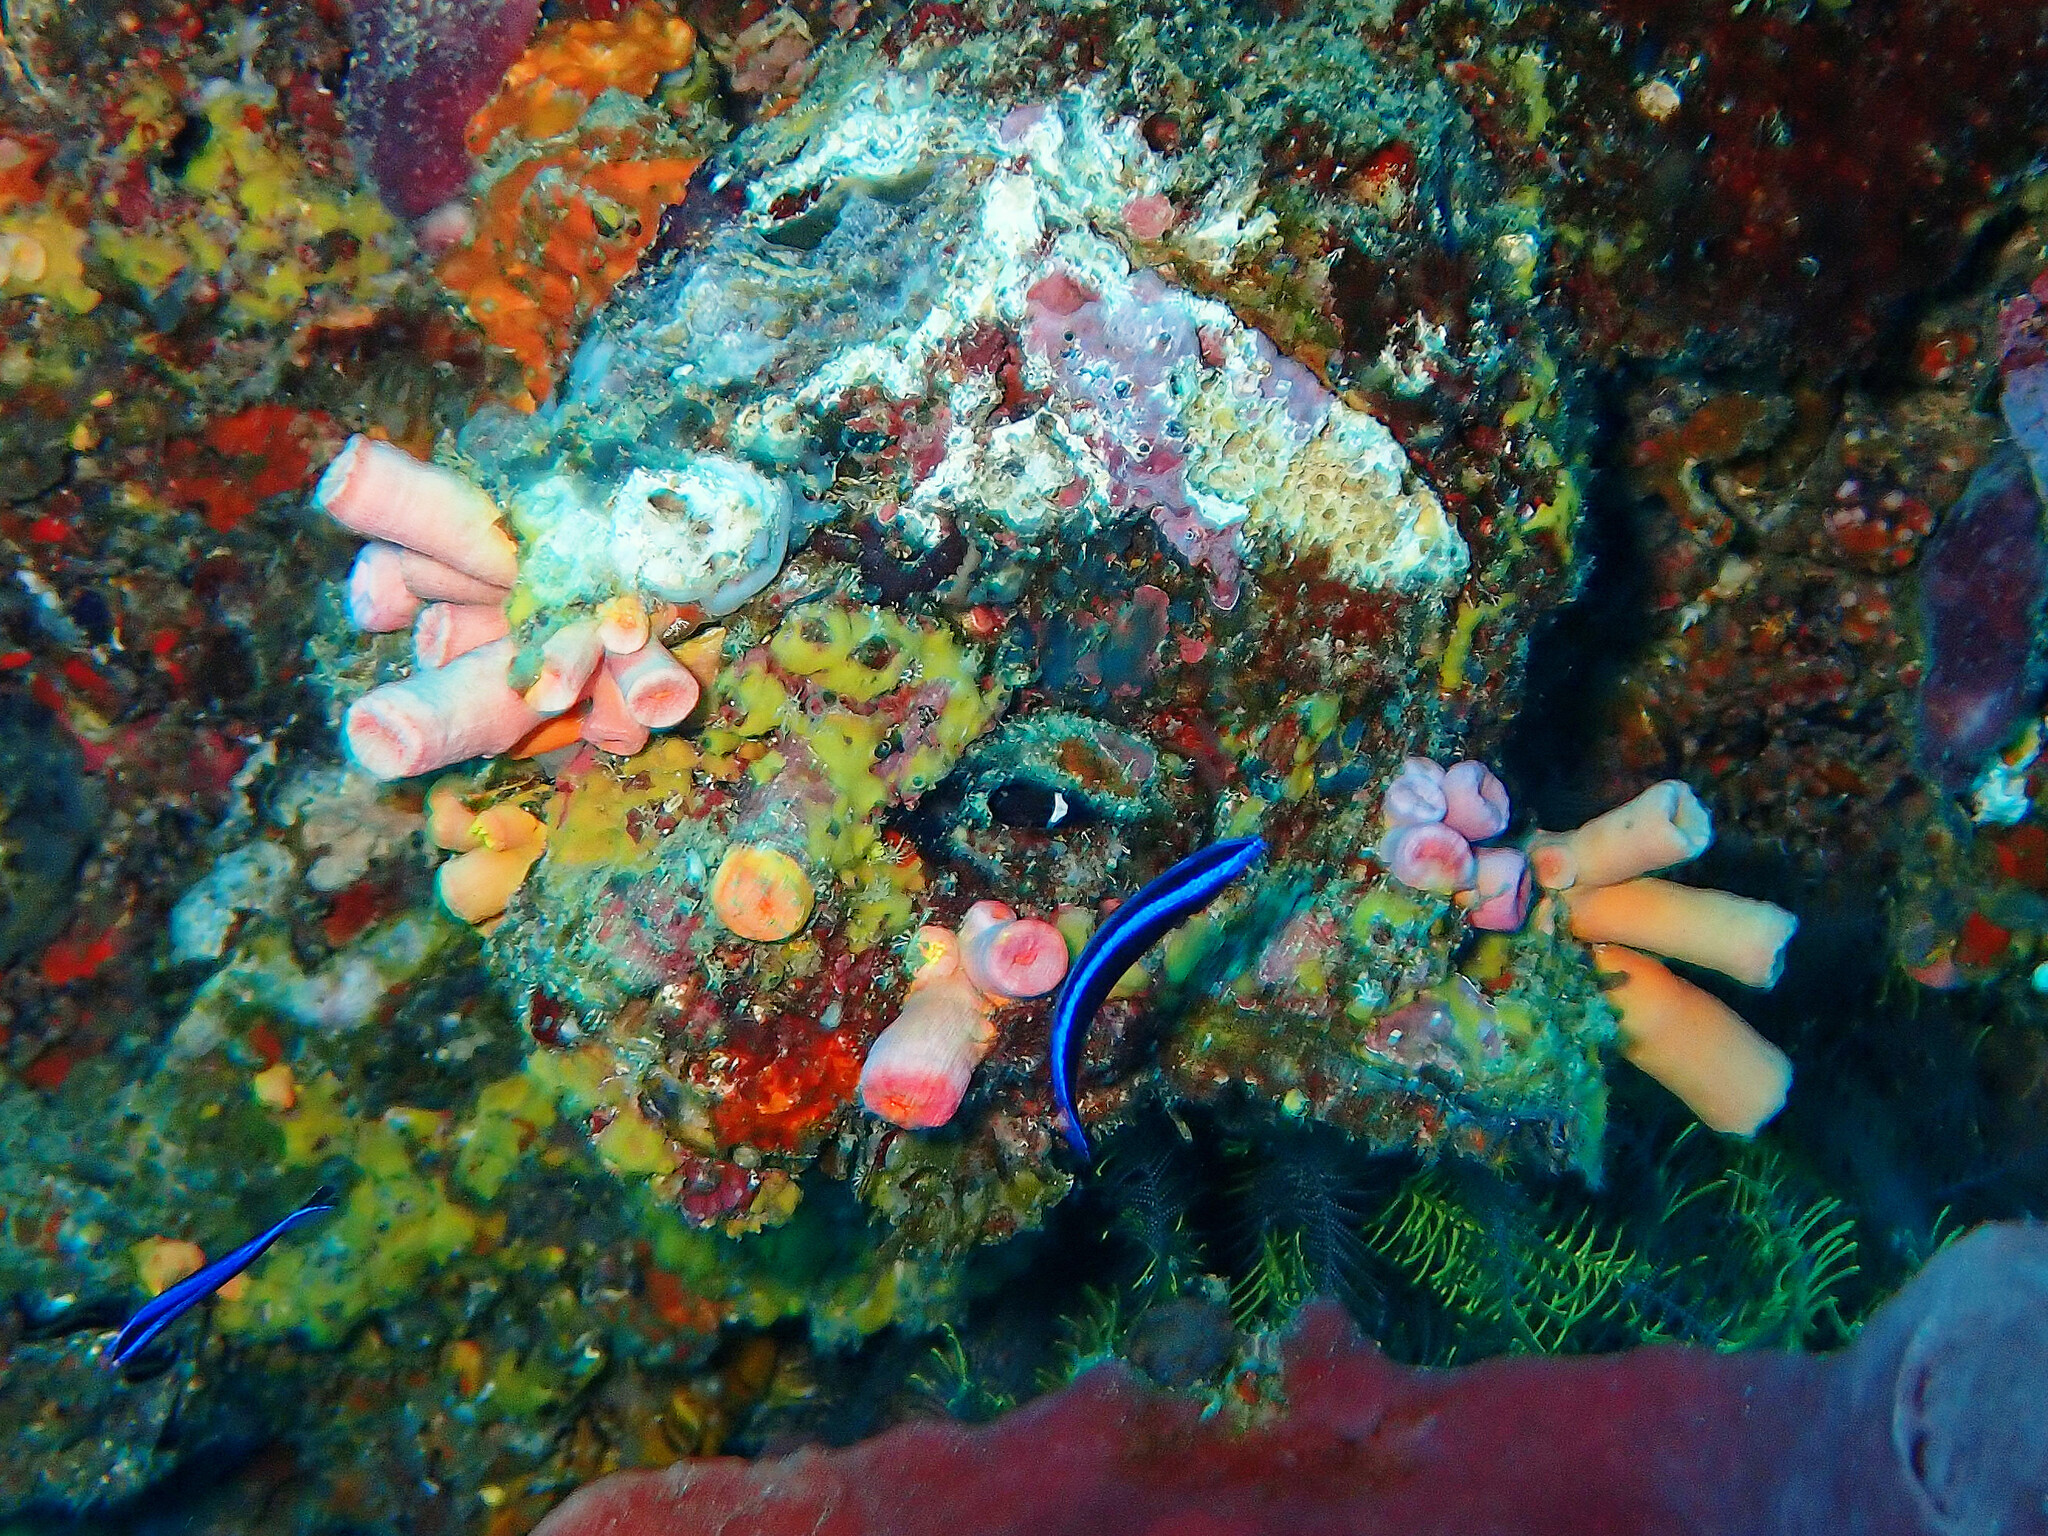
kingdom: Animalia
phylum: Cnidaria
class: Anthozoa
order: Scleractinia
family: Dendrophylliidae
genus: Tubastraea
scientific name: Tubastraea tagusensis
